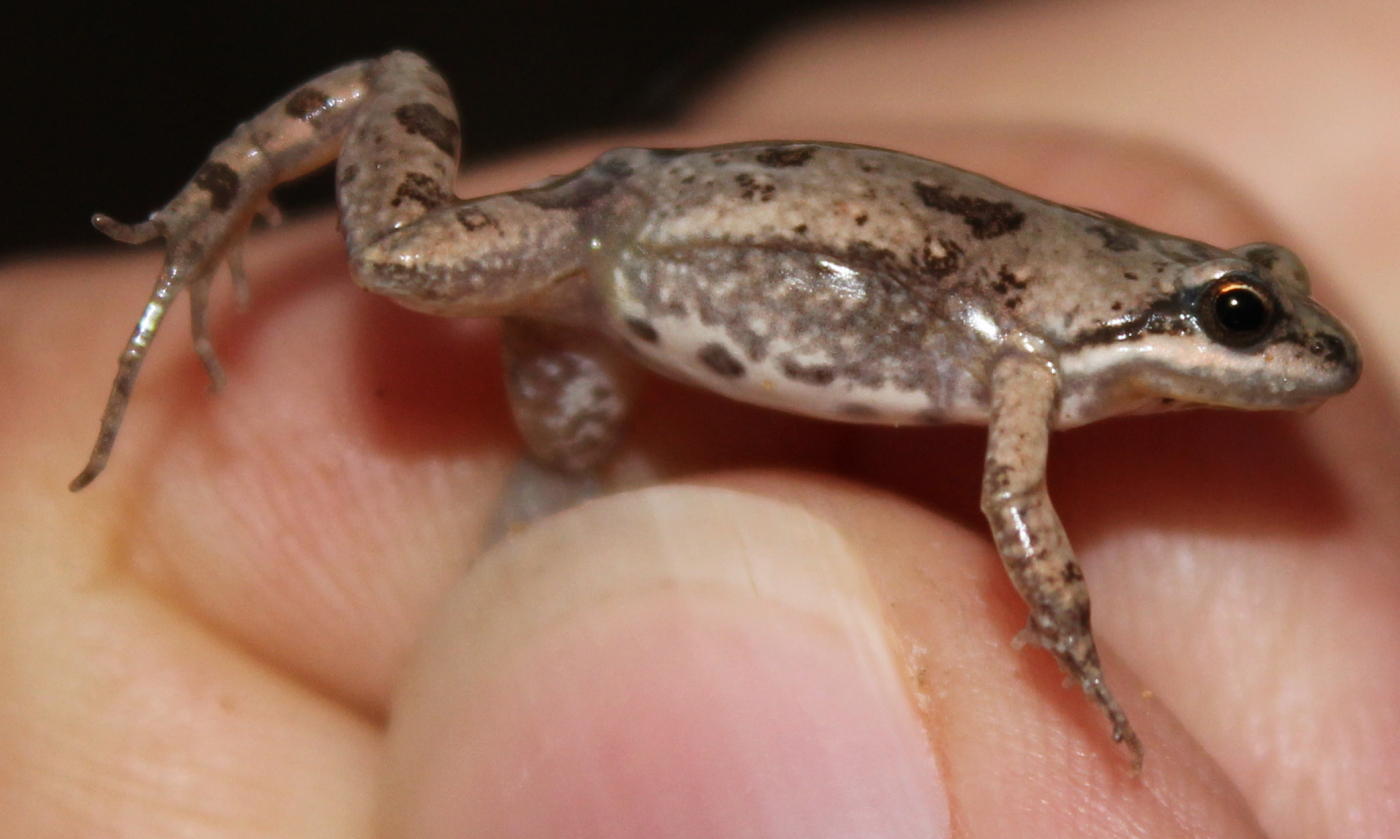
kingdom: Animalia
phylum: Chordata
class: Amphibia
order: Anura
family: Pyxicephalidae
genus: Cacosternum
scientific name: Cacosternum boettgeri
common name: Boettger's frog
